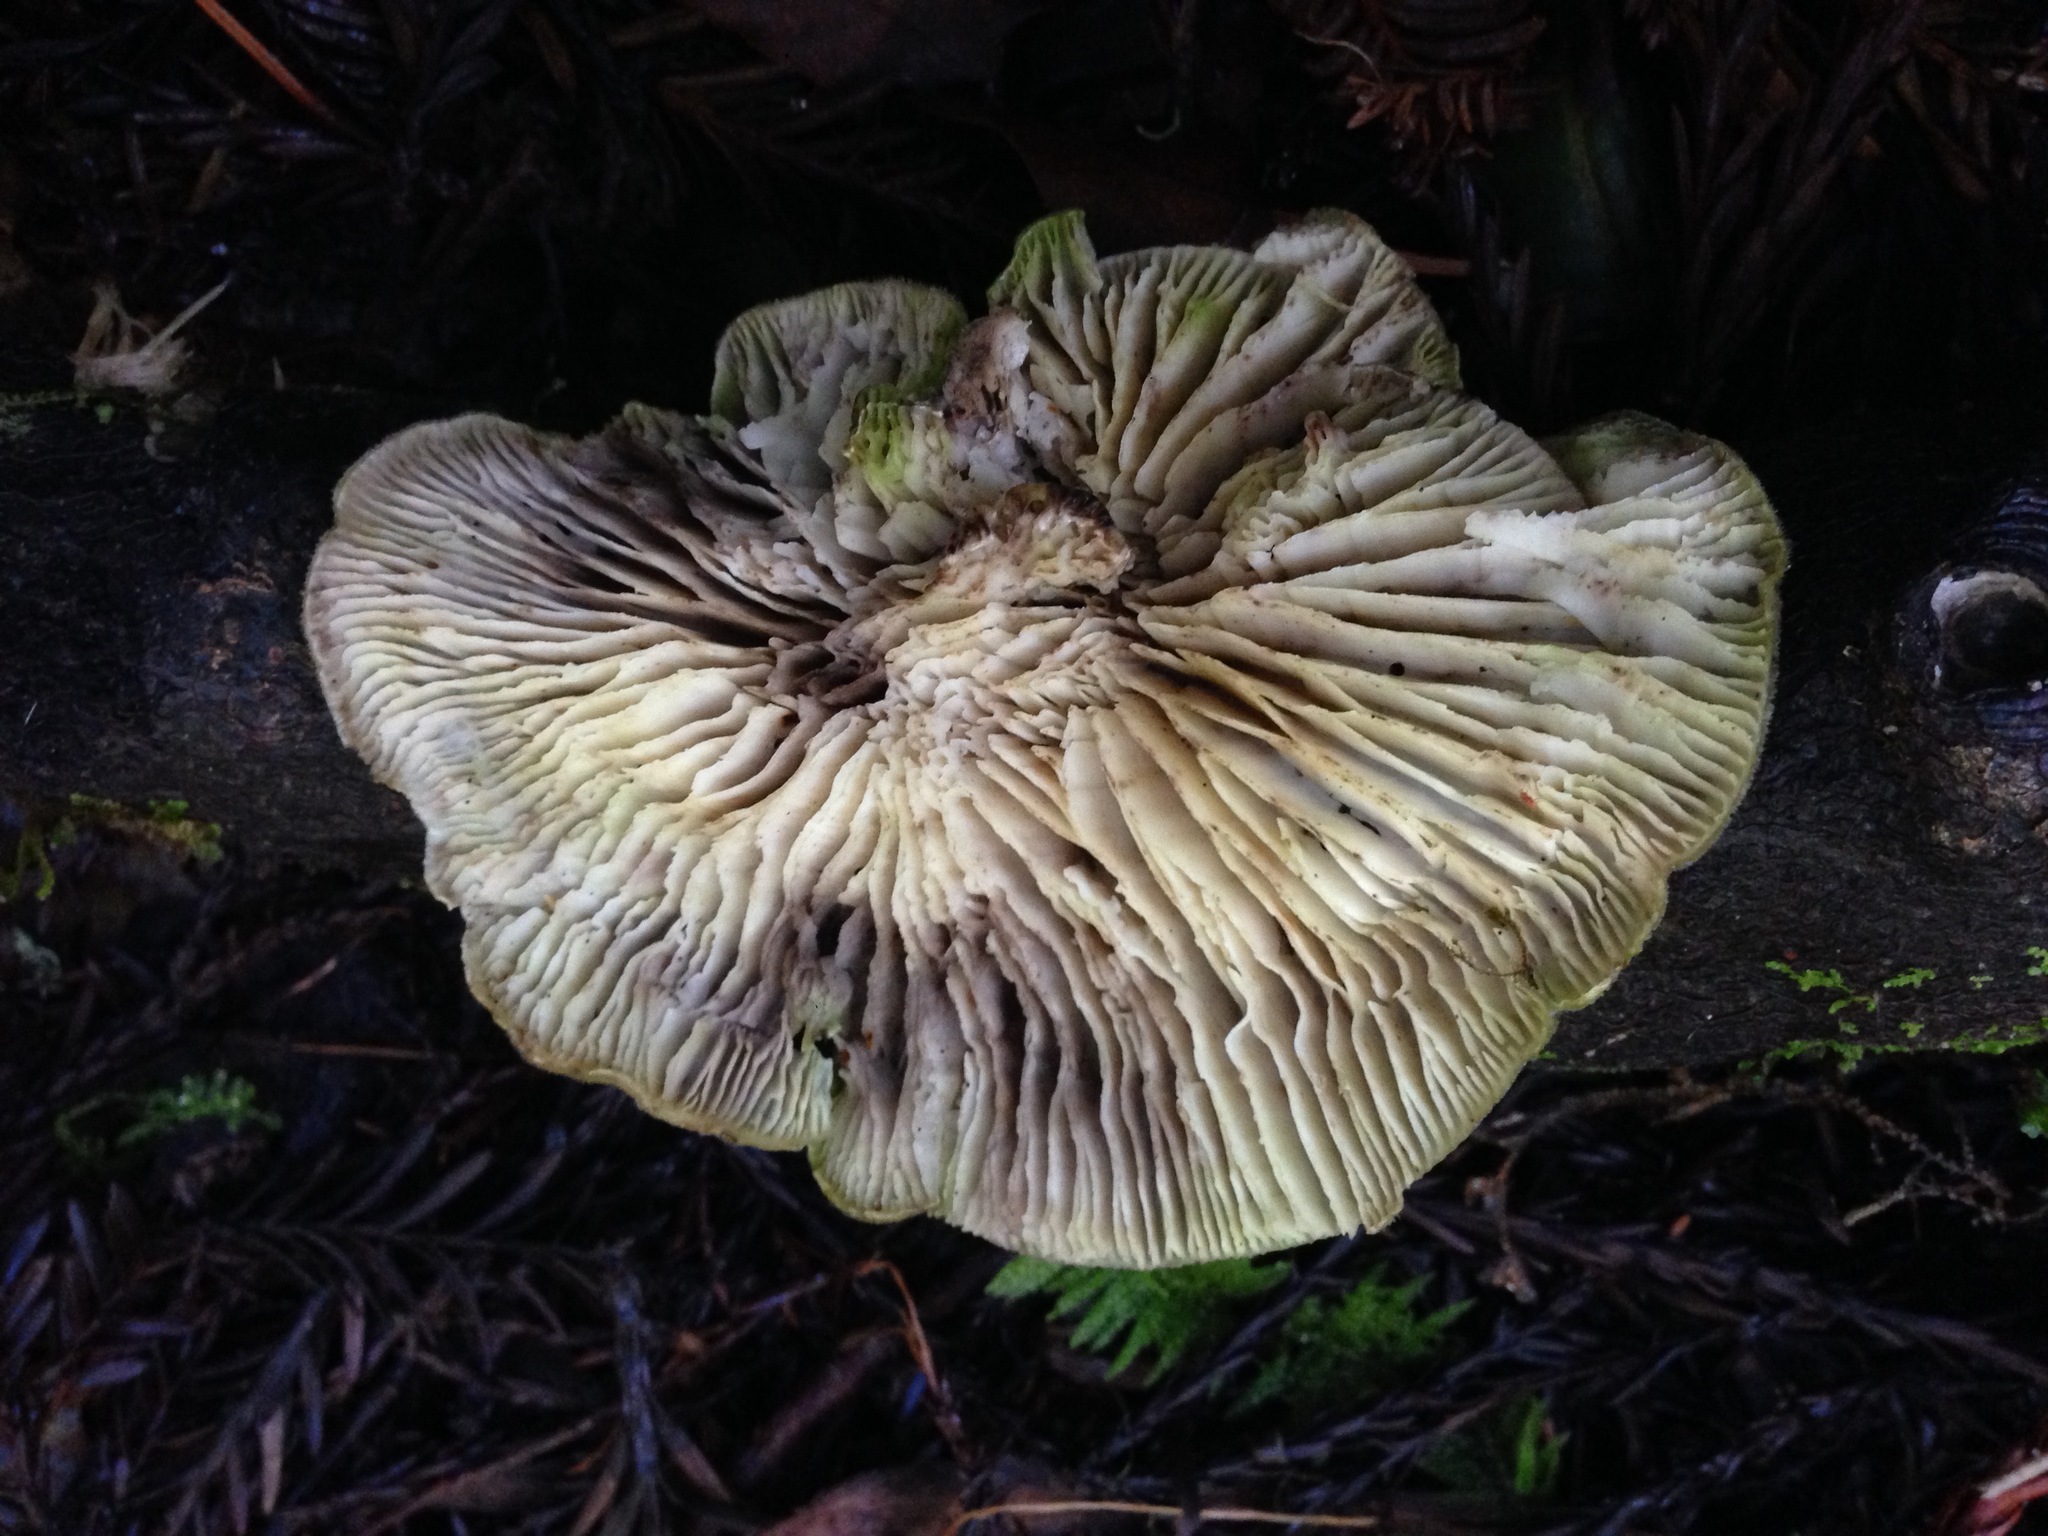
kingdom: Fungi
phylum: Basidiomycota
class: Agaricomycetes
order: Polyporales
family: Polyporaceae
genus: Lenzites
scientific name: Lenzites betulinus
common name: Birch mazegill
